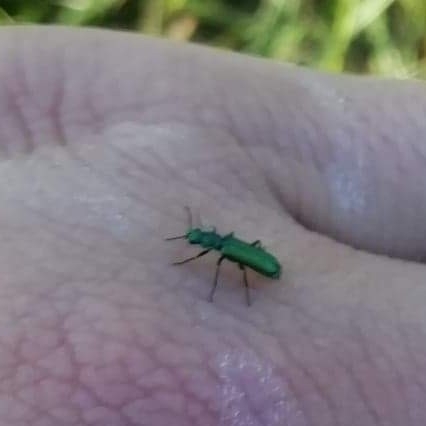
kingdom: Animalia
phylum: Arthropoda
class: Insecta
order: Coleoptera
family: Dasytidae
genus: Psilothrix
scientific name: Psilothrix viridicoerulea
